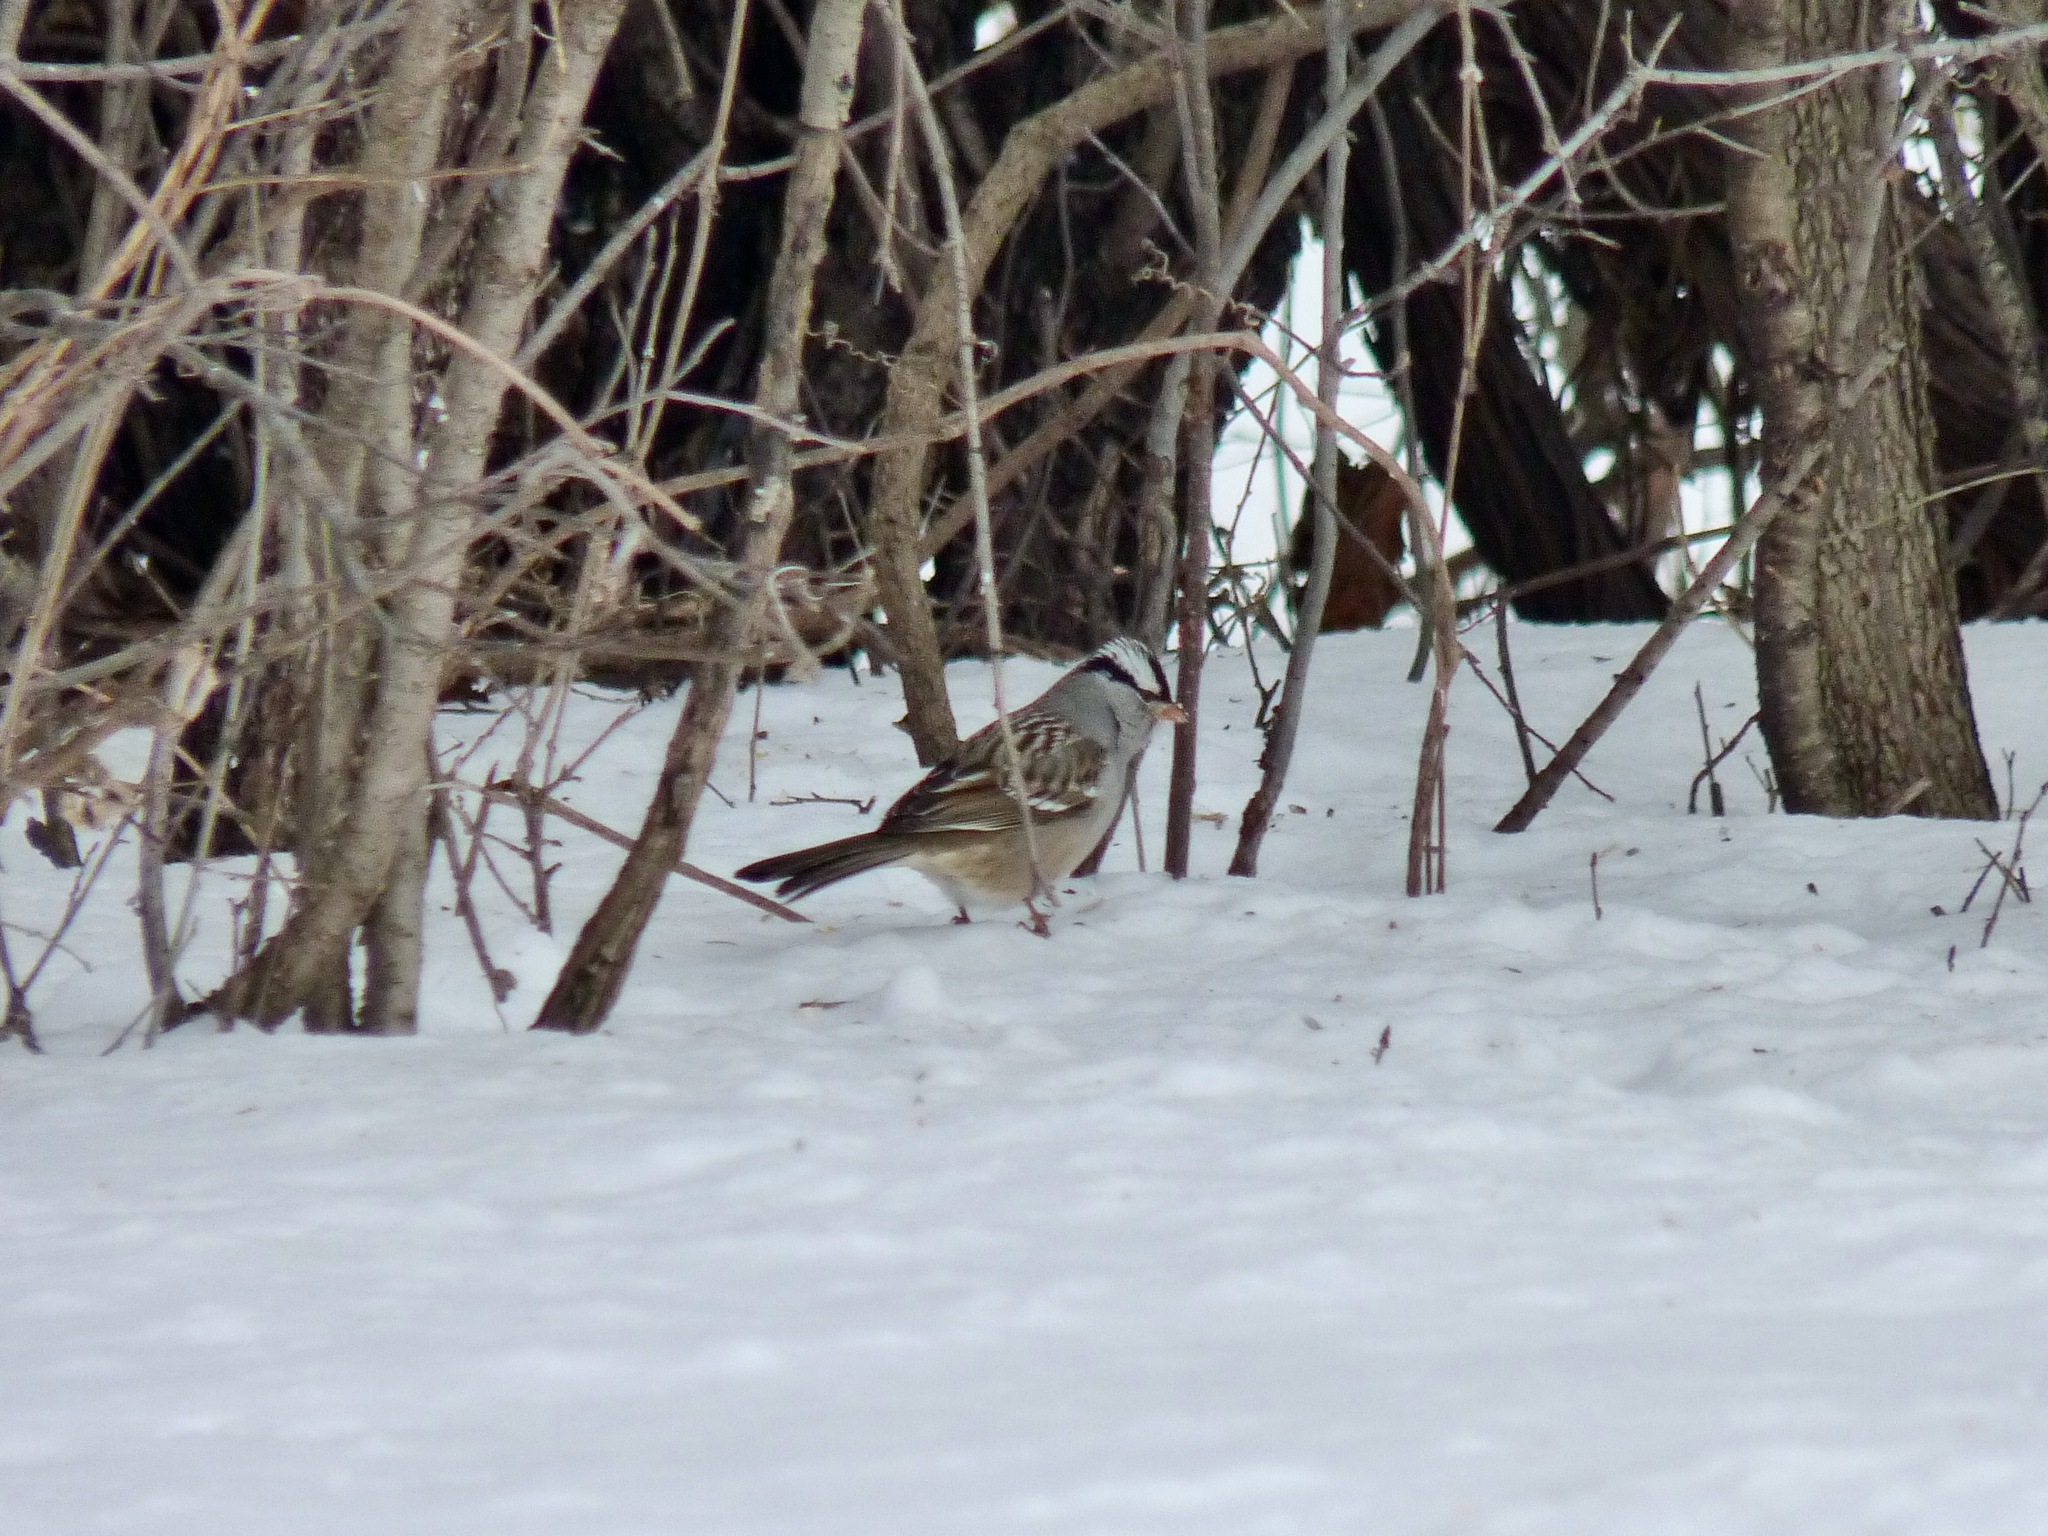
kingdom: Animalia
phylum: Chordata
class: Aves
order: Passeriformes
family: Passerellidae
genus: Zonotrichia
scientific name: Zonotrichia leucophrys
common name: White-crowned sparrow
